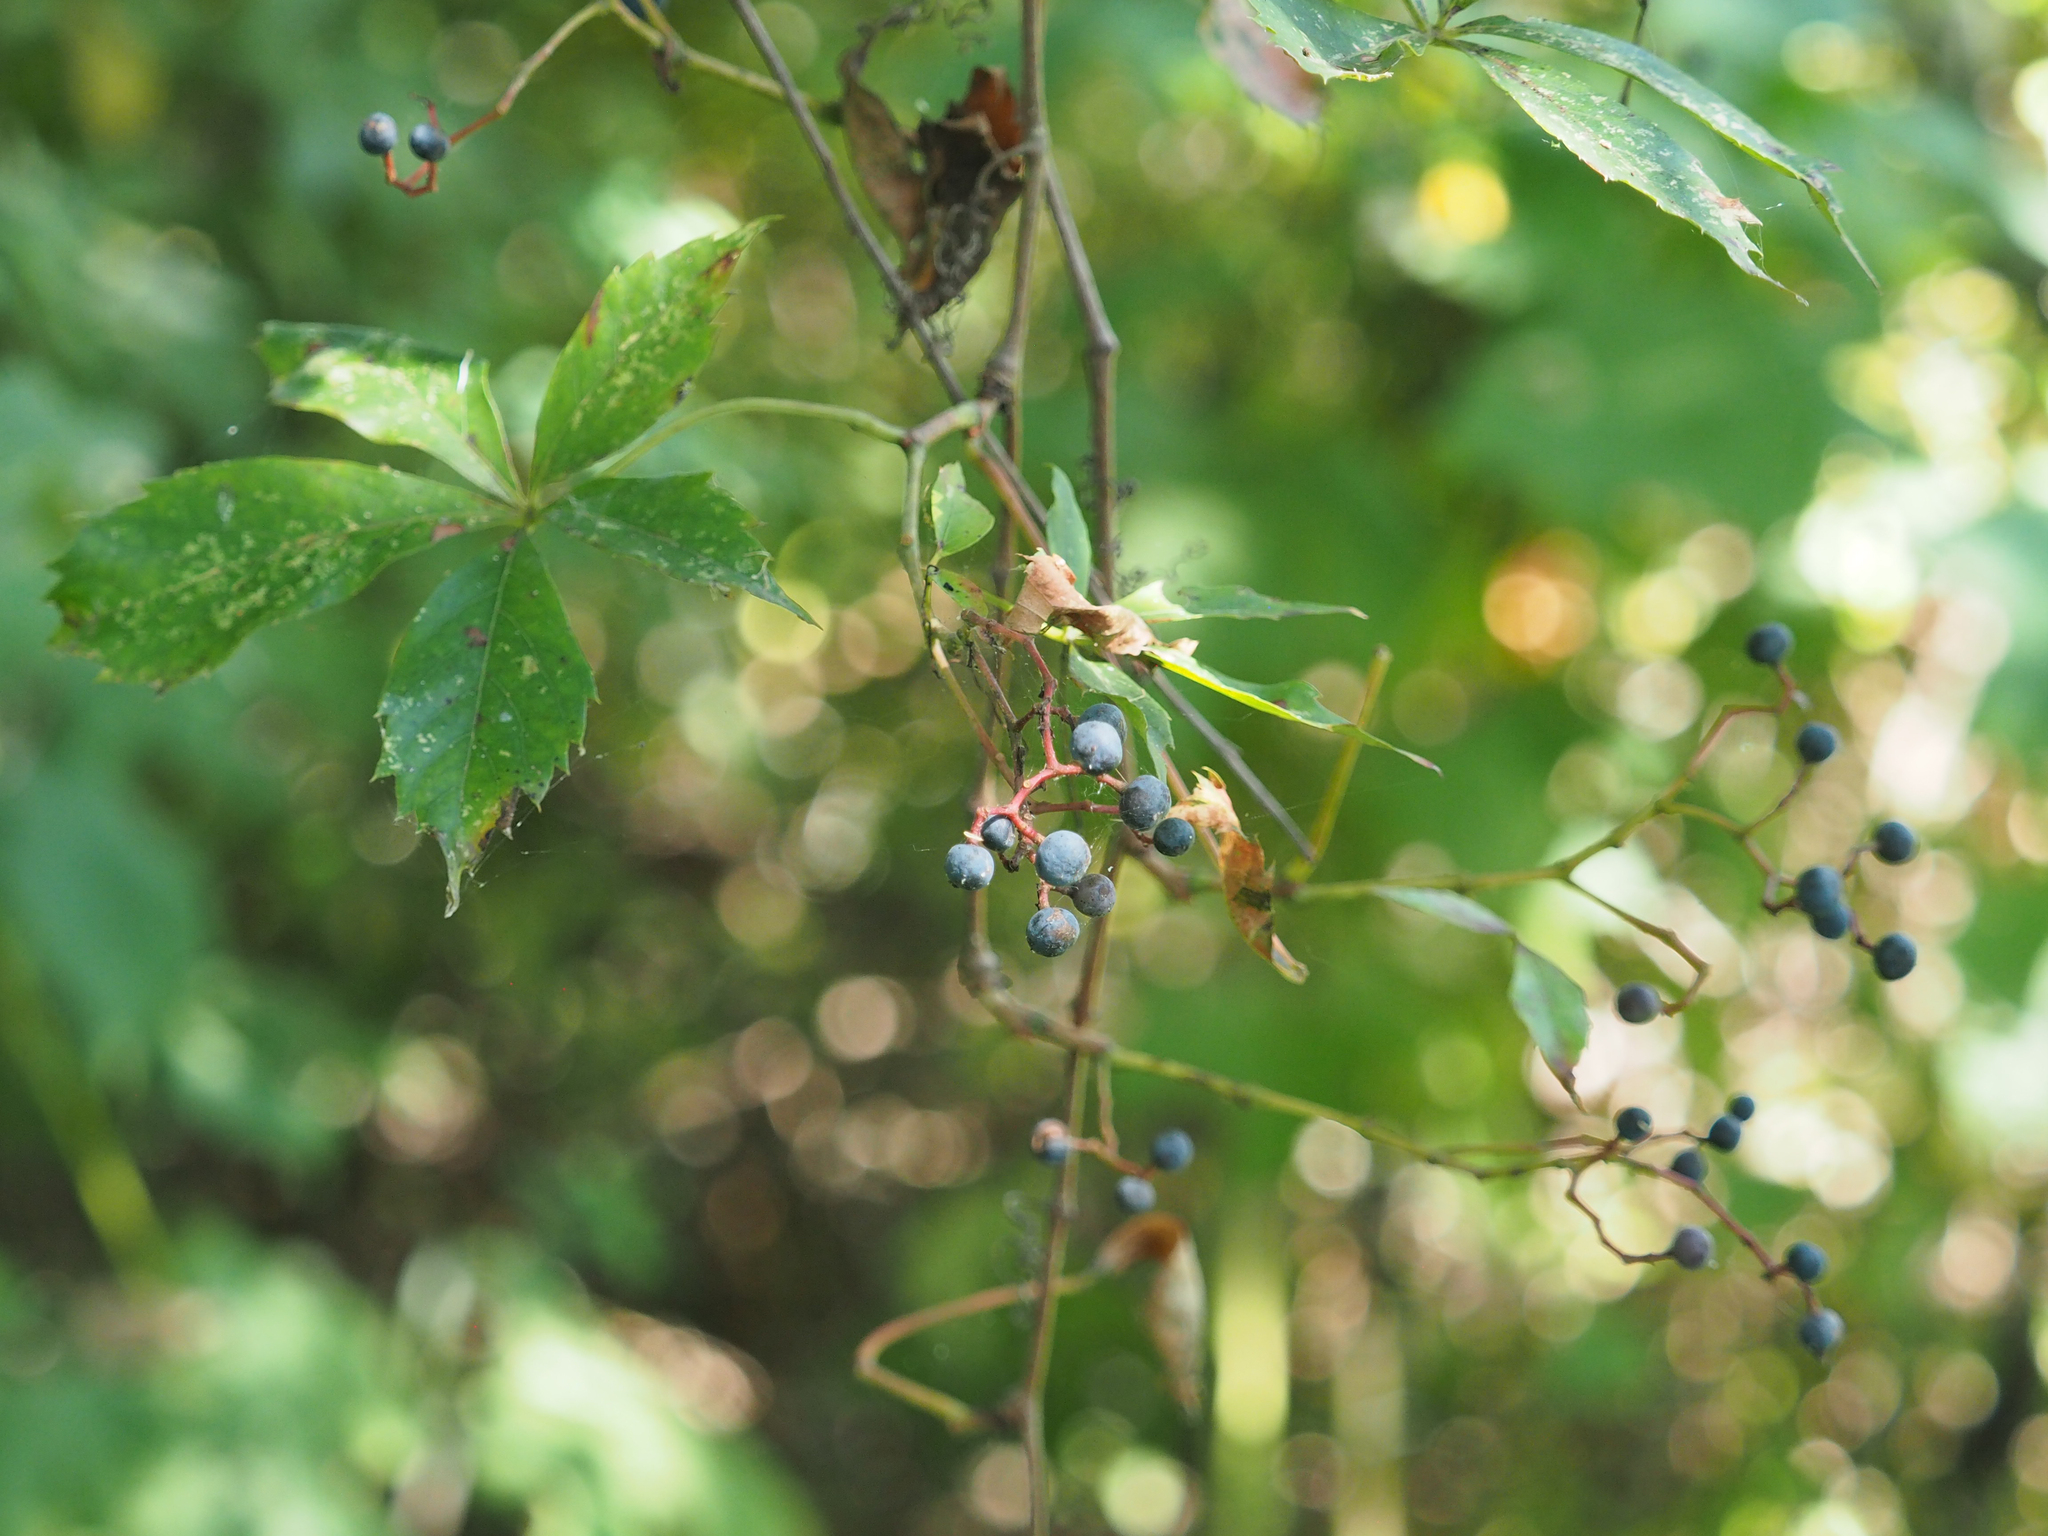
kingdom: Plantae
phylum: Tracheophyta
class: Magnoliopsida
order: Vitales
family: Vitaceae
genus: Parthenocissus
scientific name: Parthenocissus quinquefolia
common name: Virginia-creeper
